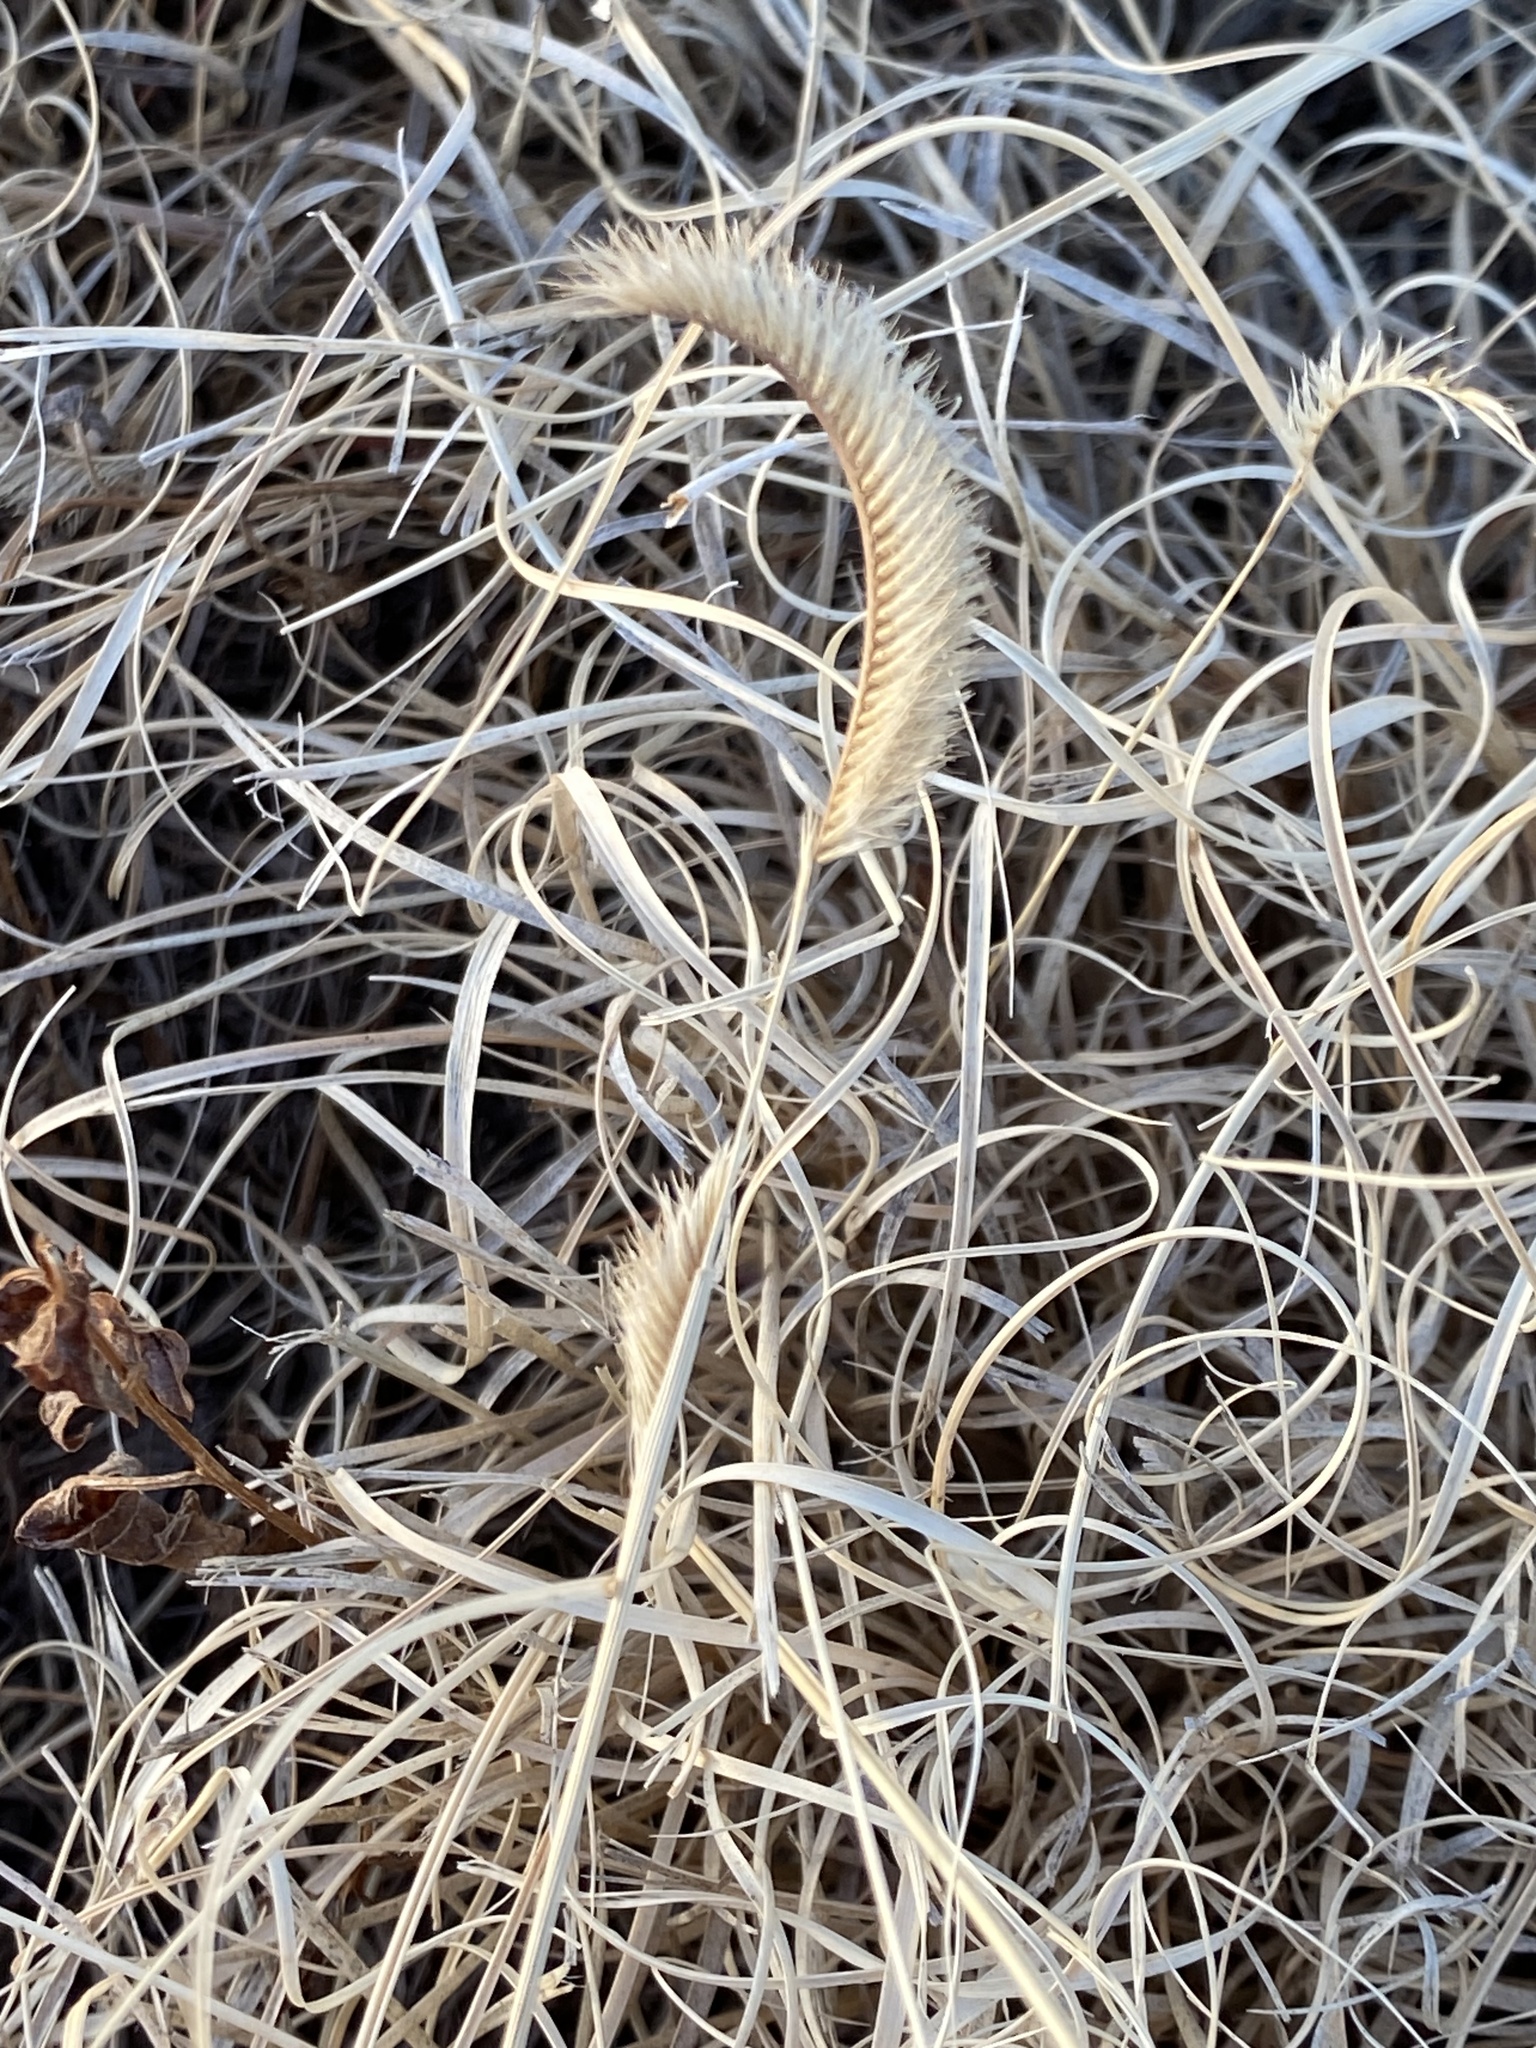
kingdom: Plantae
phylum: Tracheophyta
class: Liliopsida
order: Poales
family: Poaceae
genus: Bouteloua
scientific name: Bouteloua gracilis
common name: Blue grama
